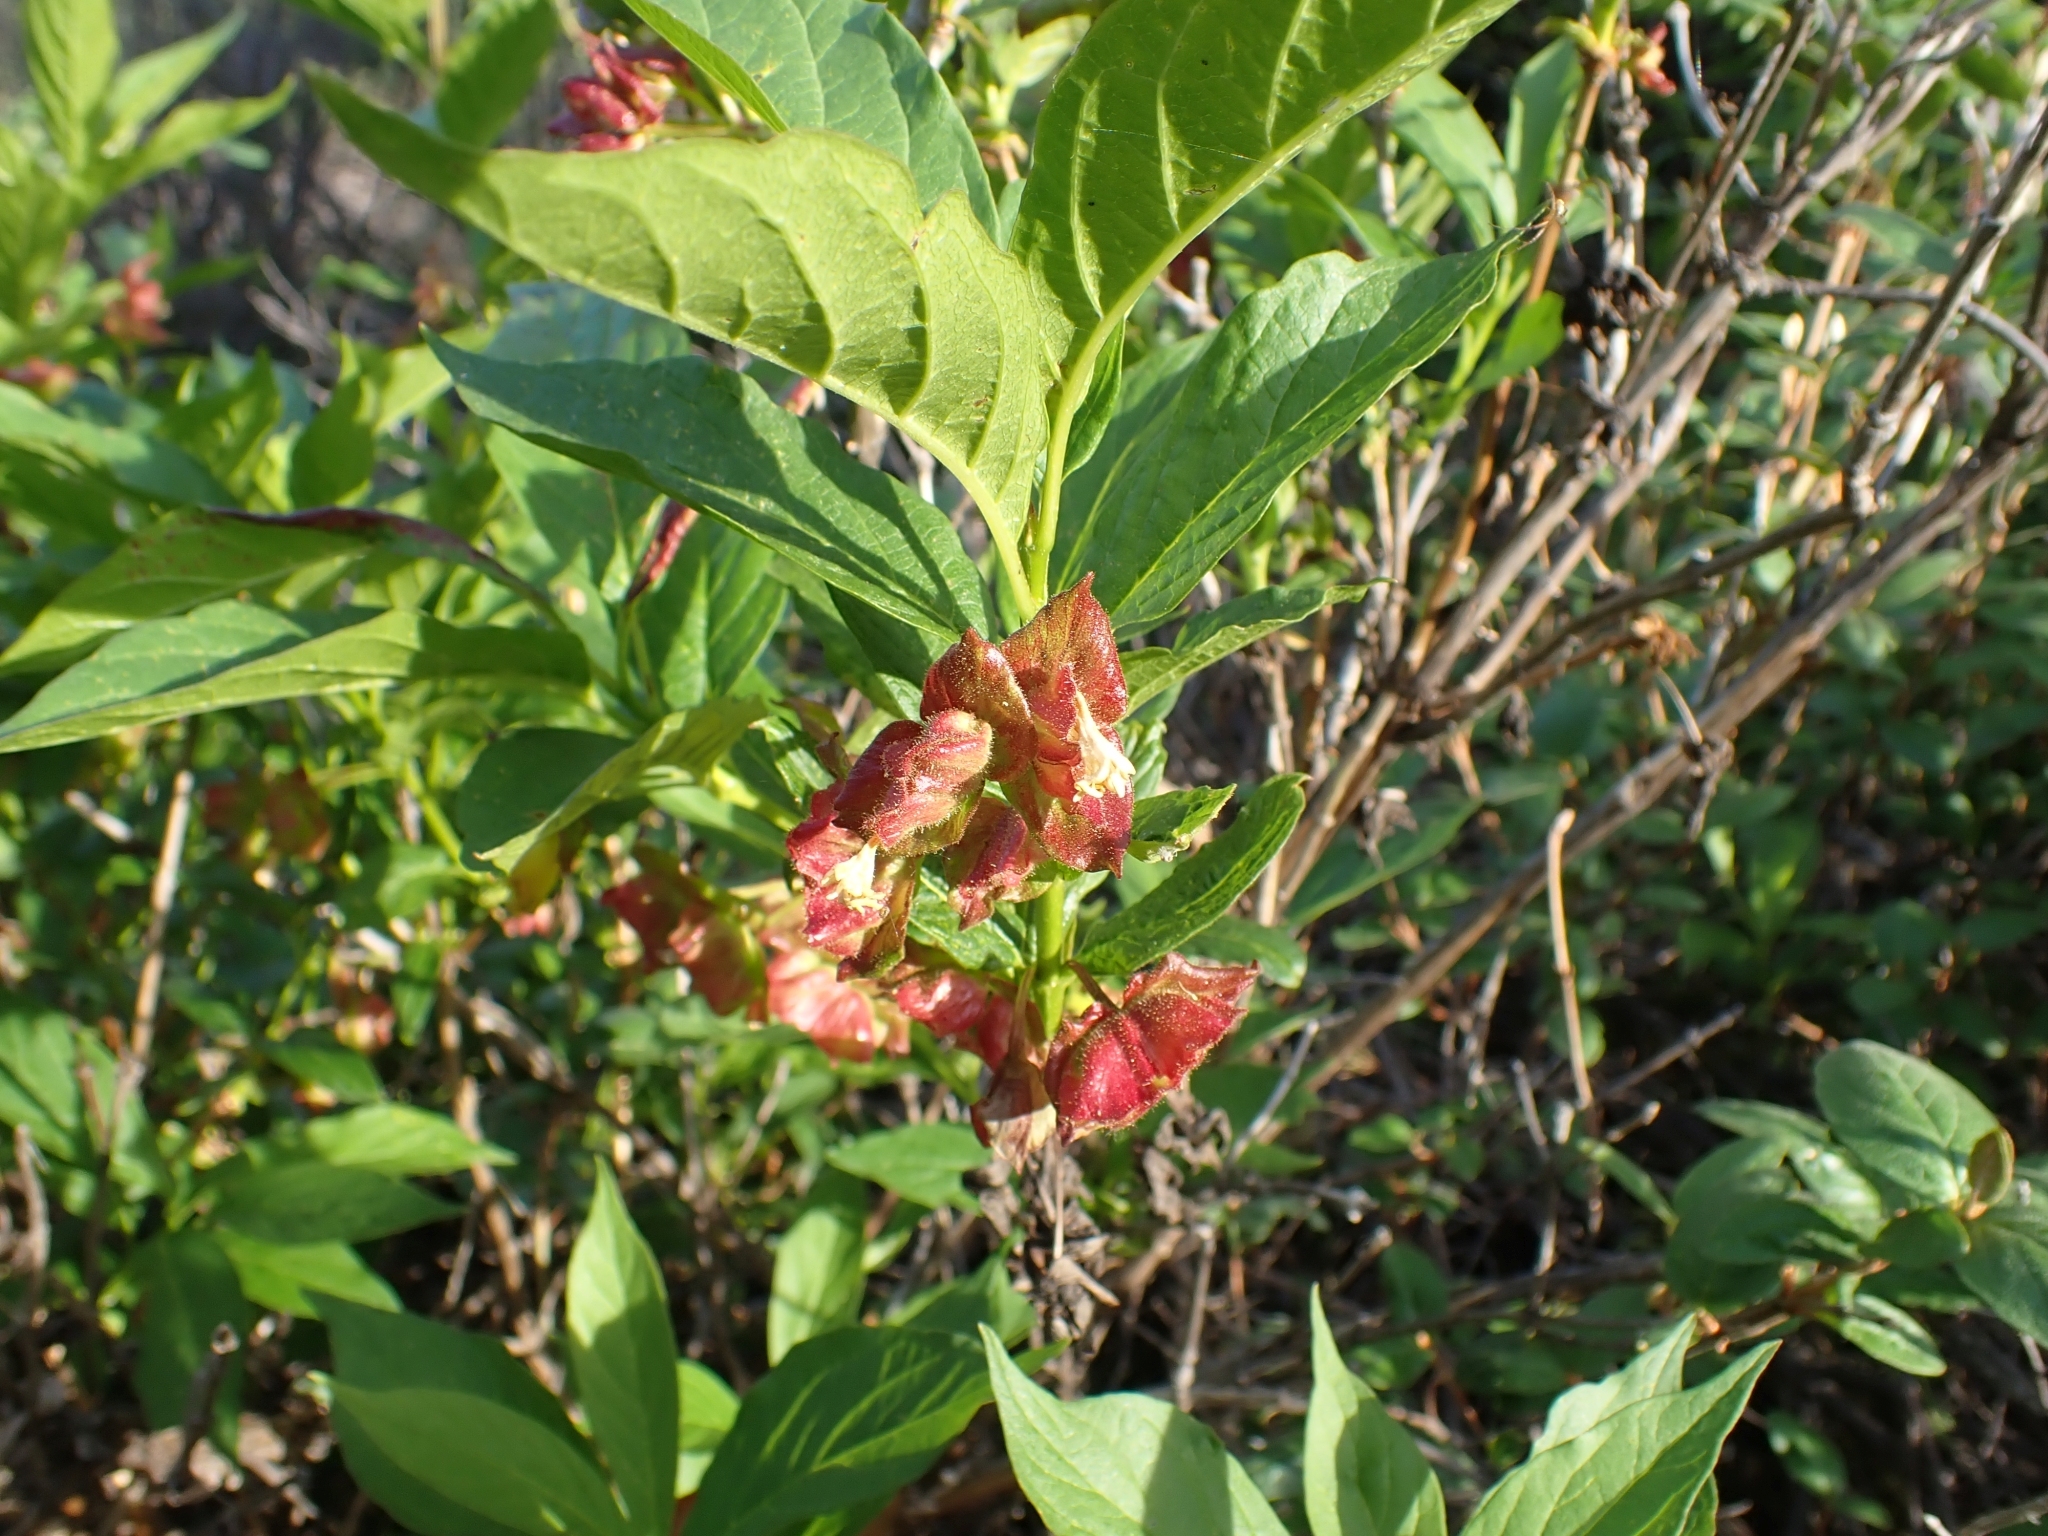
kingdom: Plantae
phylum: Tracheophyta
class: Magnoliopsida
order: Dipsacales
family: Caprifoliaceae
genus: Lonicera
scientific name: Lonicera involucrata
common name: Californian honeysuckle
